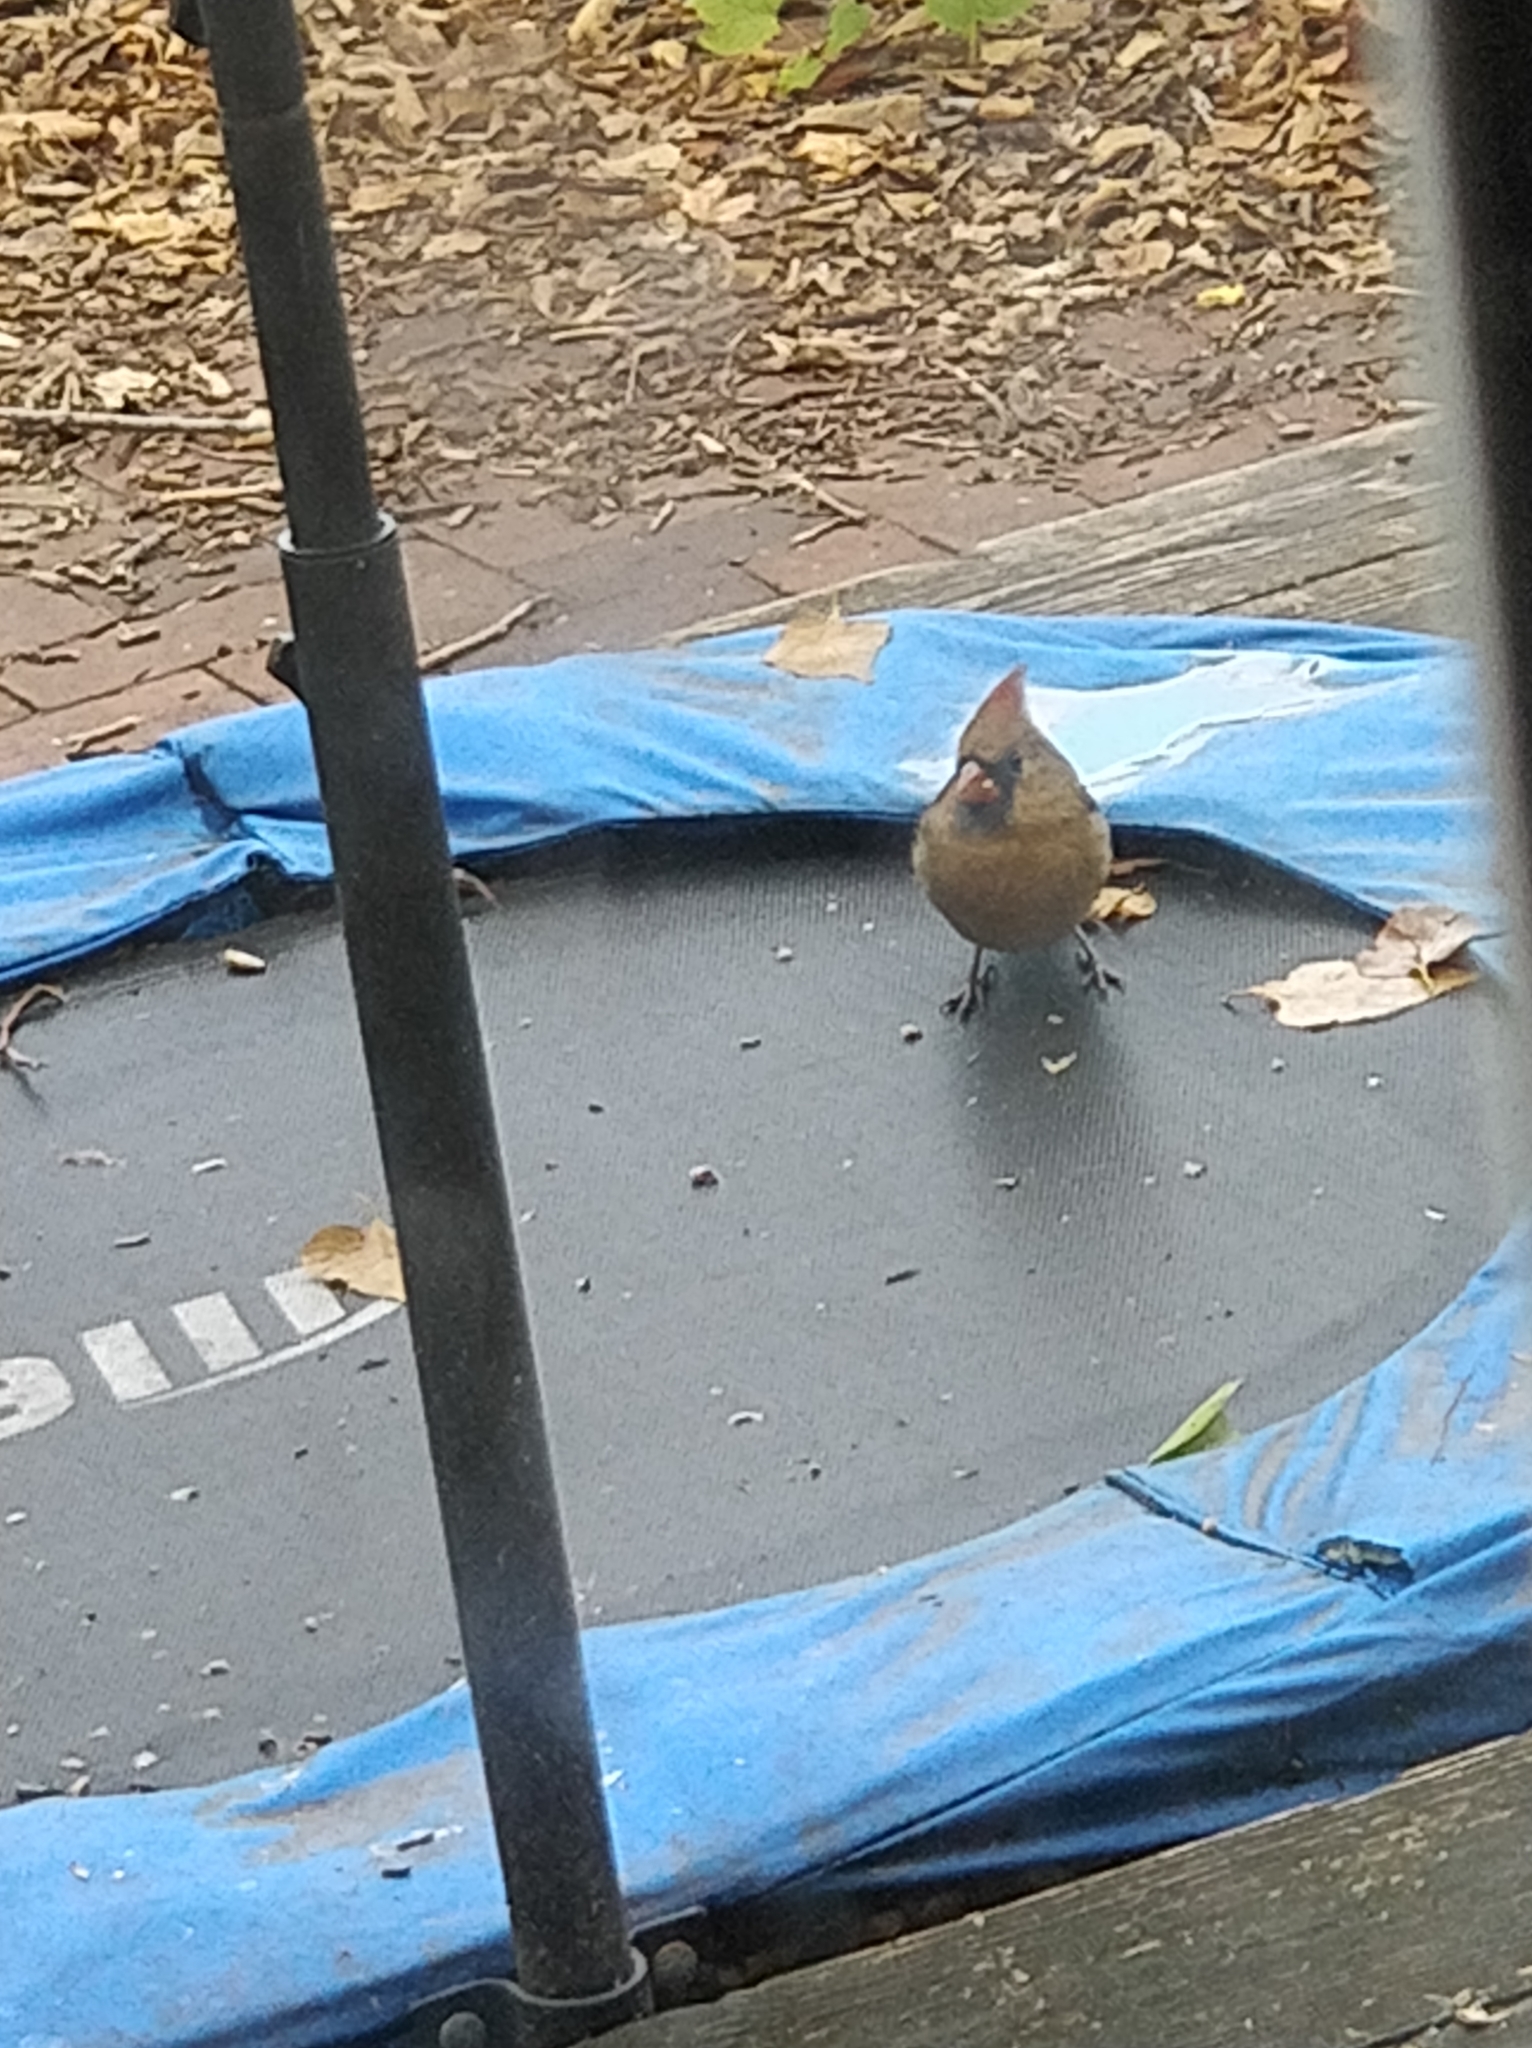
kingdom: Animalia
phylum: Chordata
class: Aves
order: Passeriformes
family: Cardinalidae
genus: Cardinalis
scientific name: Cardinalis cardinalis
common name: Northern cardinal
